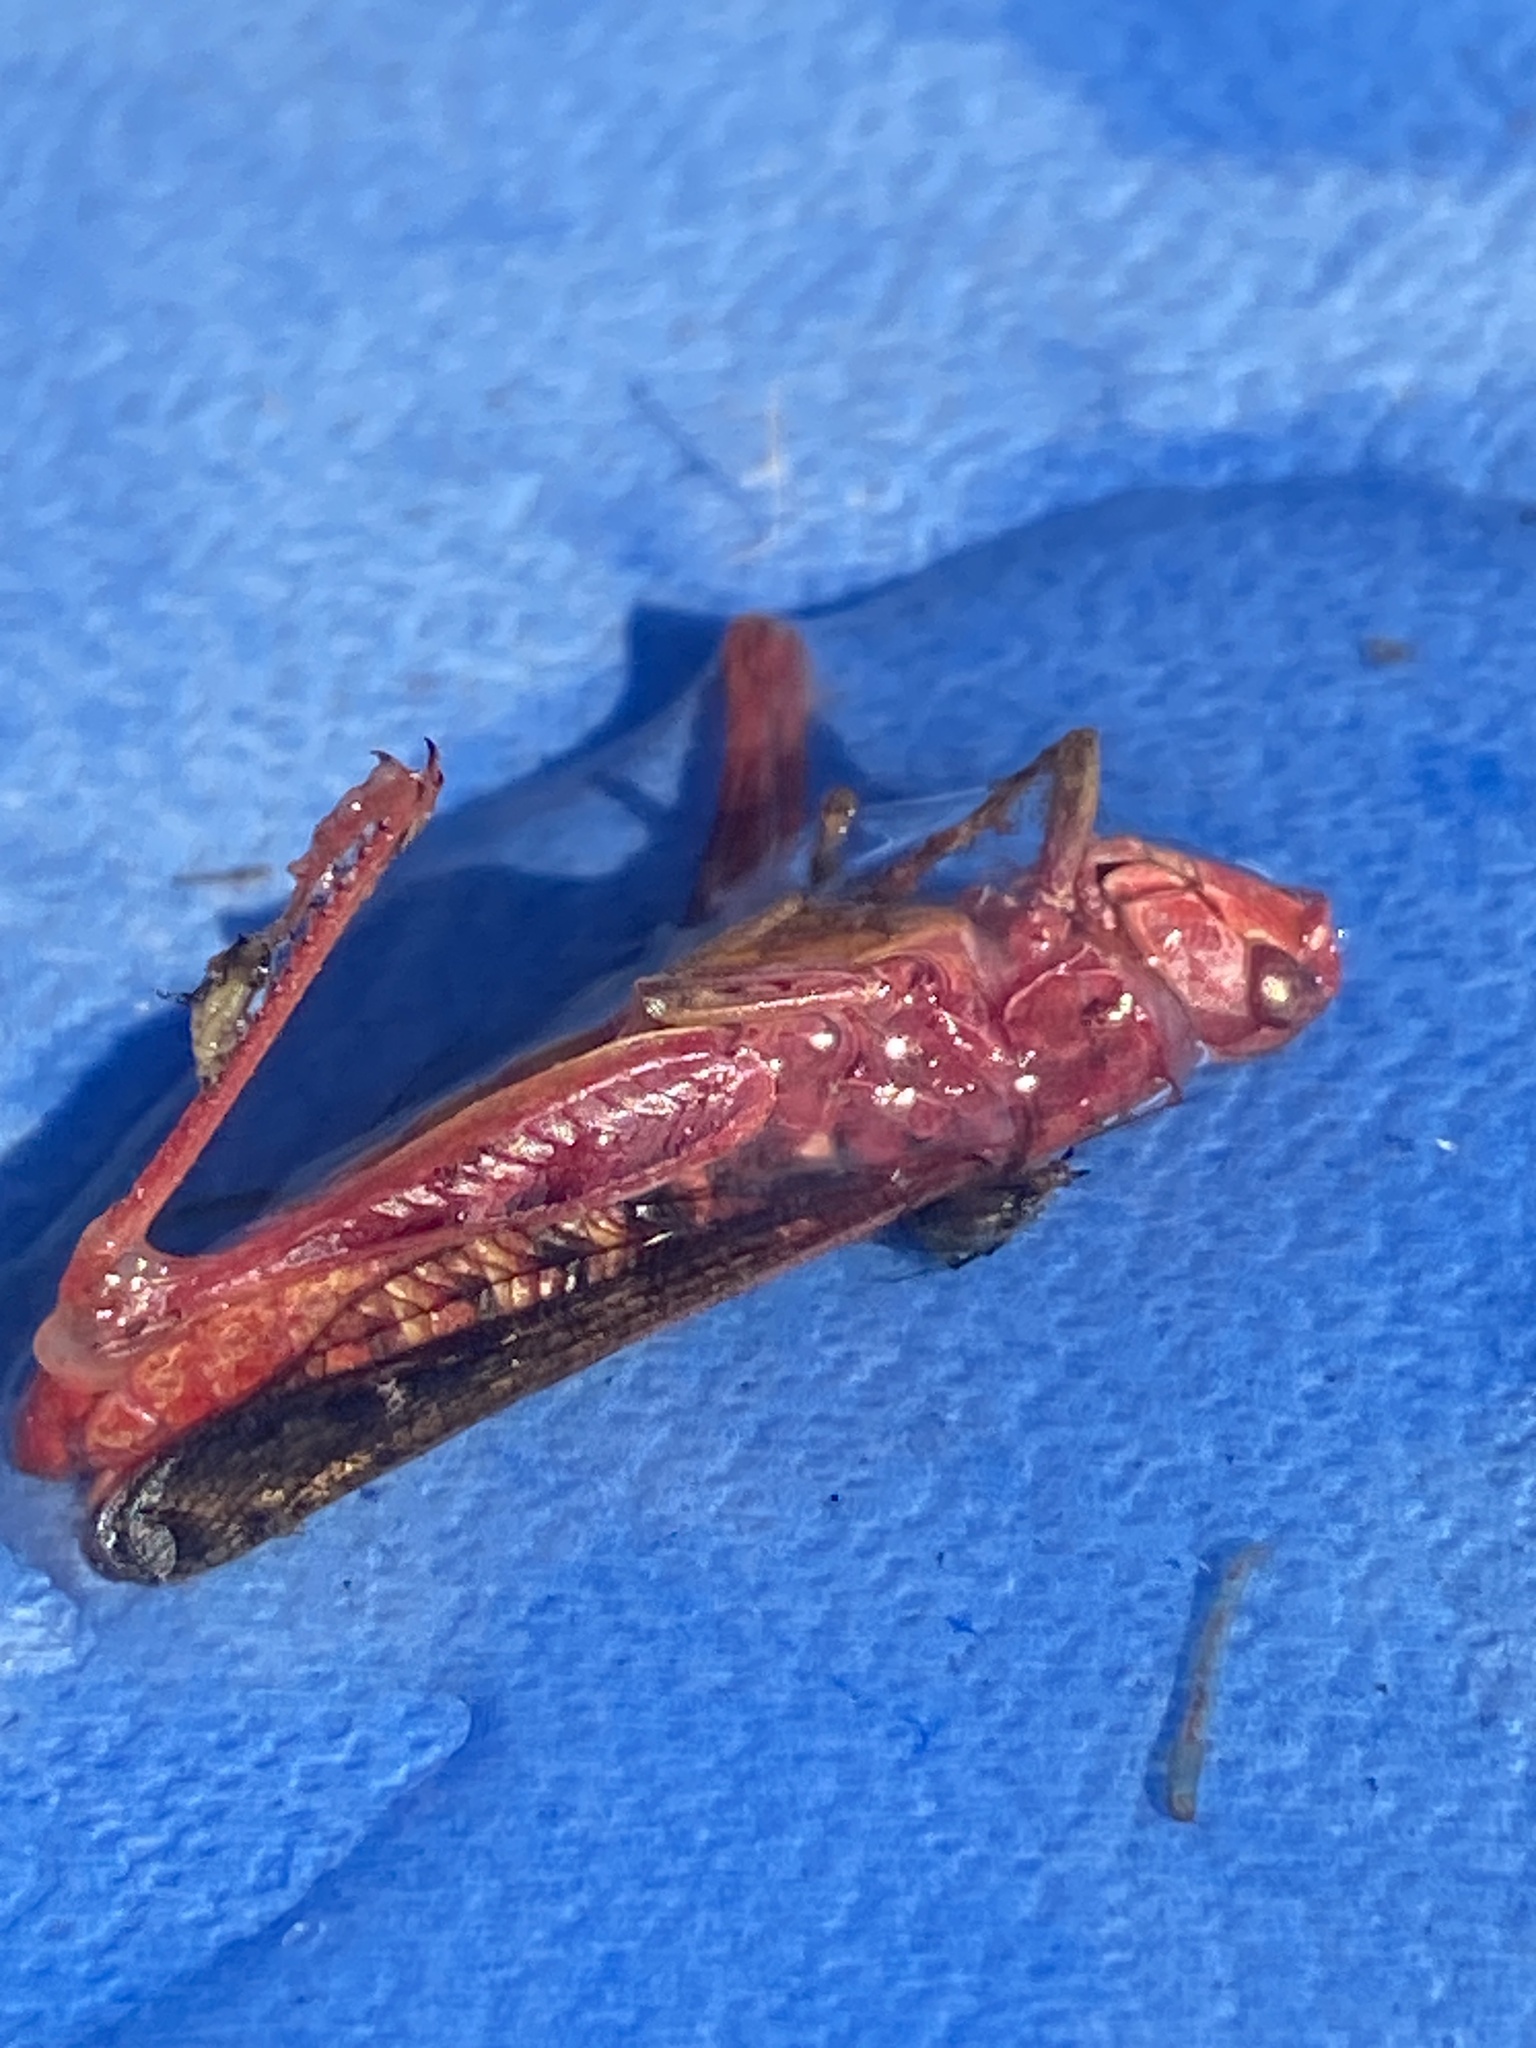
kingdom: Animalia
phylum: Arthropoda
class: Insecta
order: Orthoptera
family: Acrididae
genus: Chorthippus
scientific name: Chorthippus biguttulus
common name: Bow-winged grasshopper
